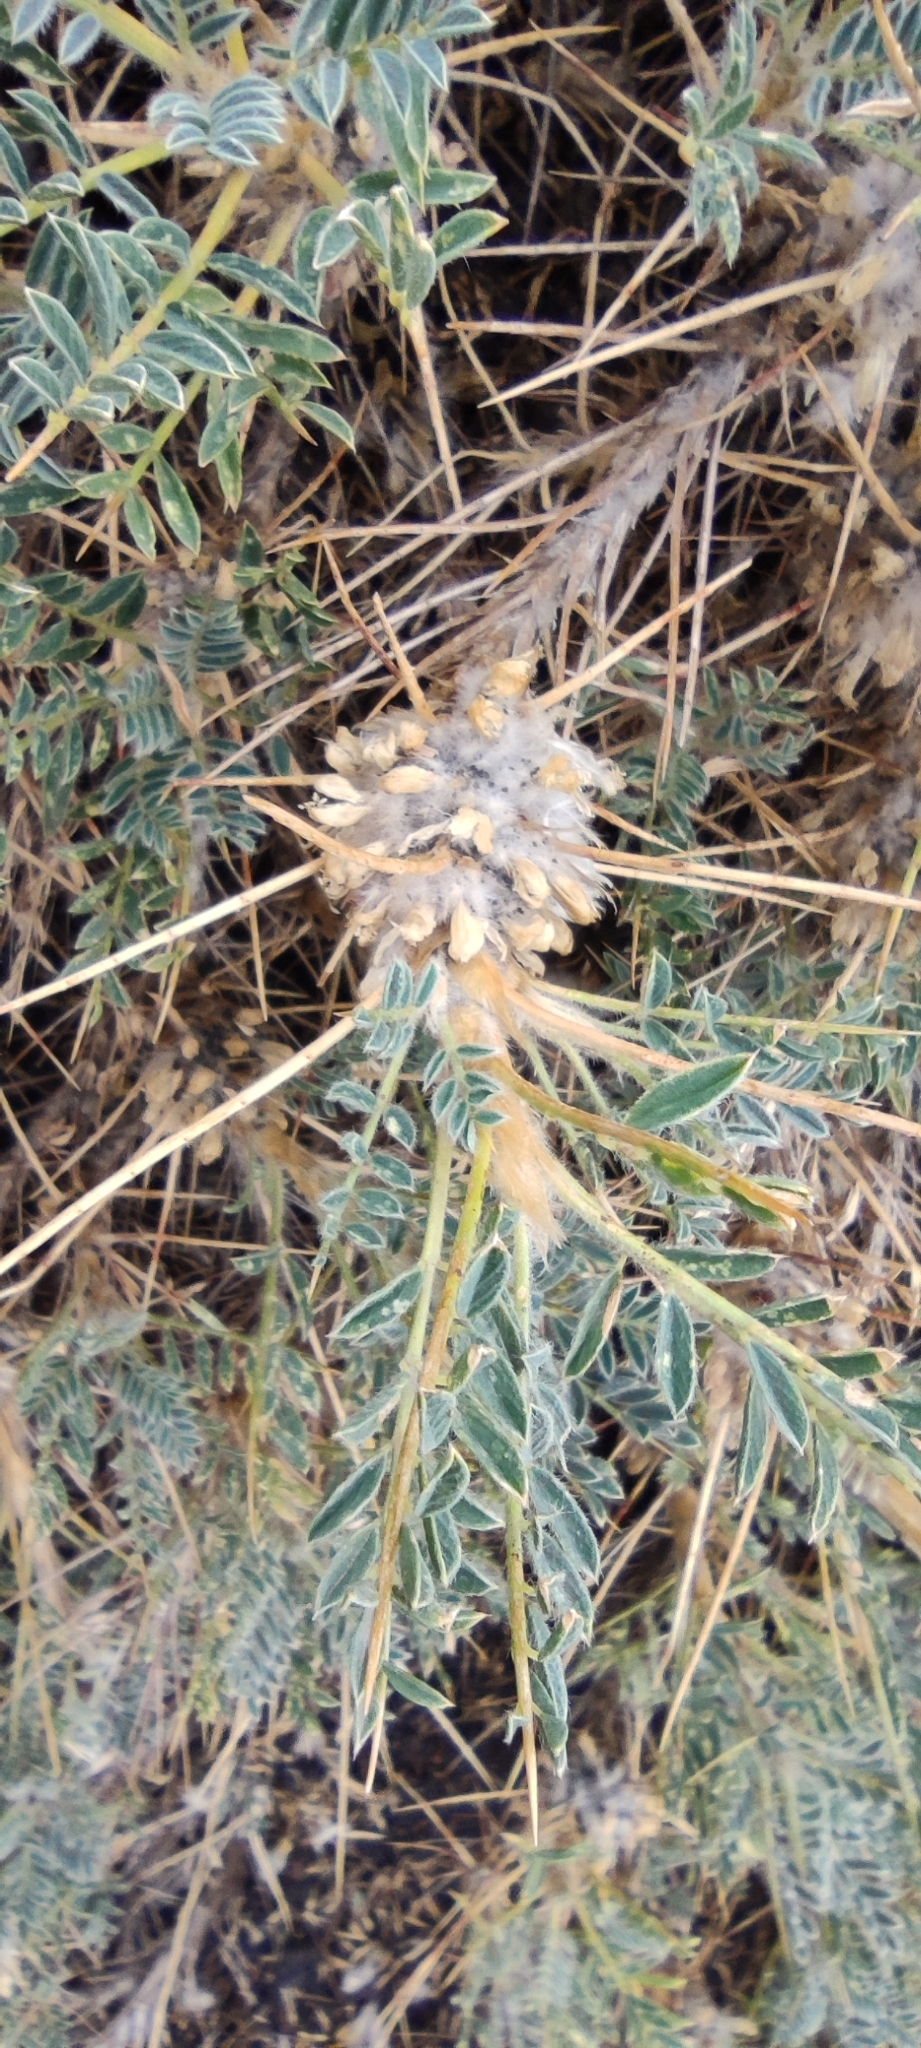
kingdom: Plantae
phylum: Tracheophyta
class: Magnoliopsida
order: Fabales
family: Fabaceae
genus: Astragalus
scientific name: Astragalus siculus
